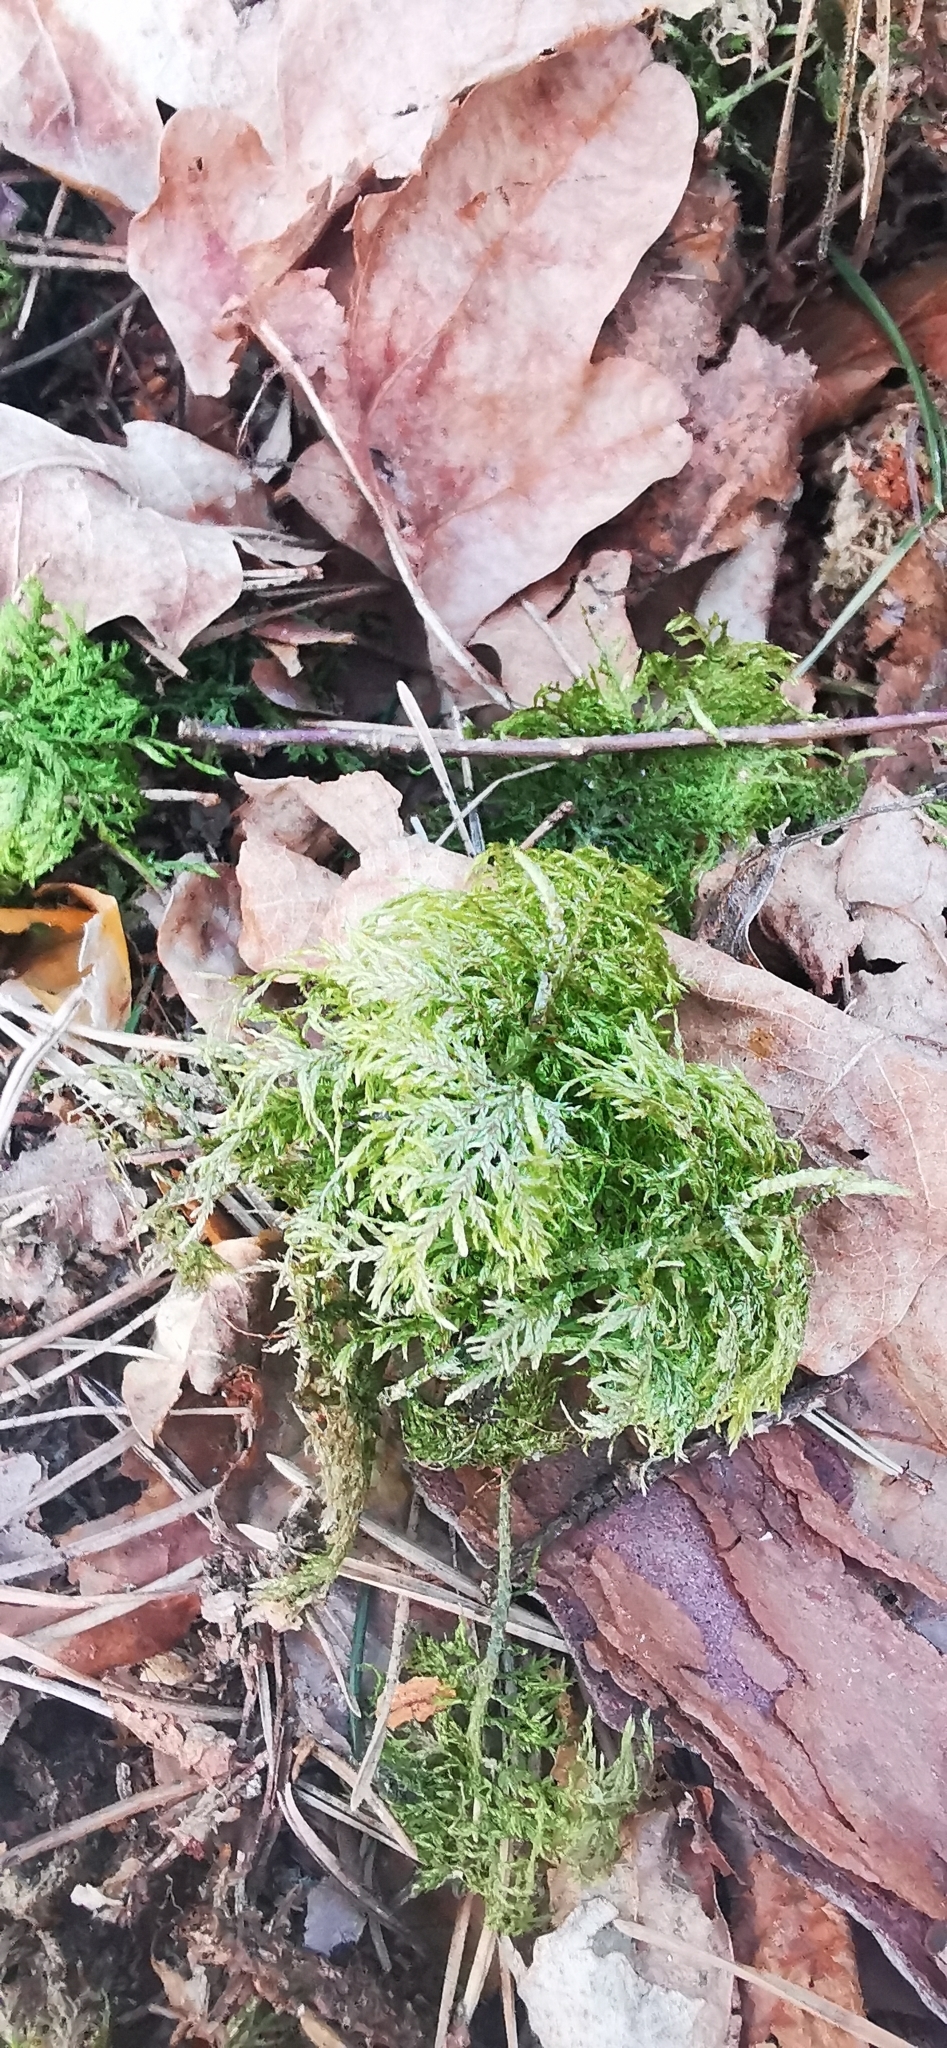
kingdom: Plantae
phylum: Bryophyta
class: Bryopsida
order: Hypnales
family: Hylocomiaceae
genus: Hylocomium
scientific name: Hylocomium splendens
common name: Stairstep moss
